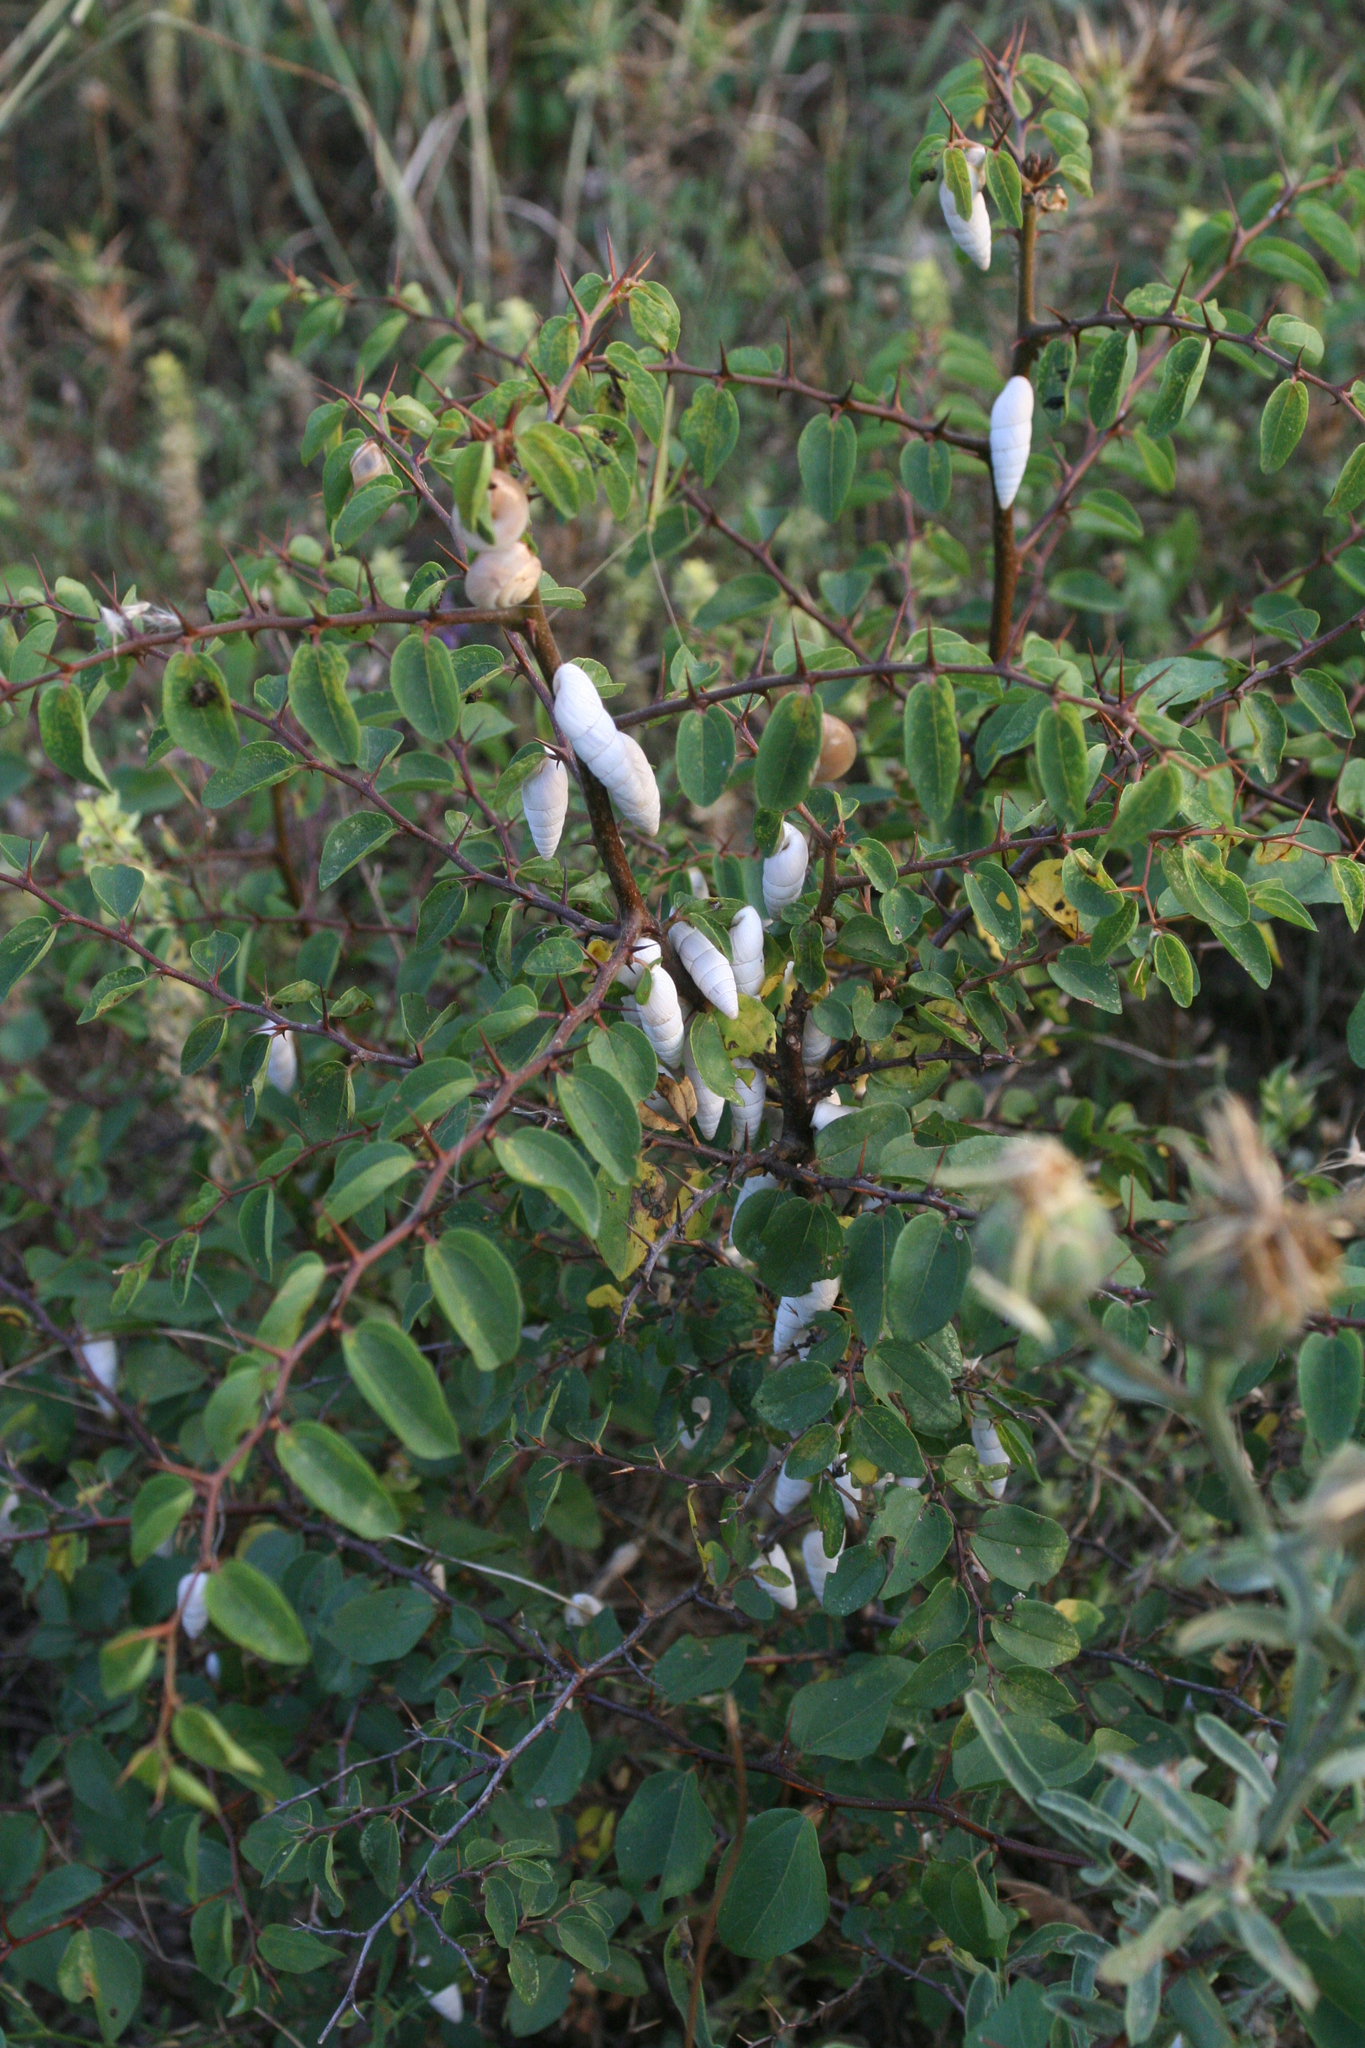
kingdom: Animalia
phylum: Mollusca
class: Gastropoda
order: Stylommatophora
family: Enidae
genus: Brephulopsis
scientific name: Brephulopsis cylindrica
